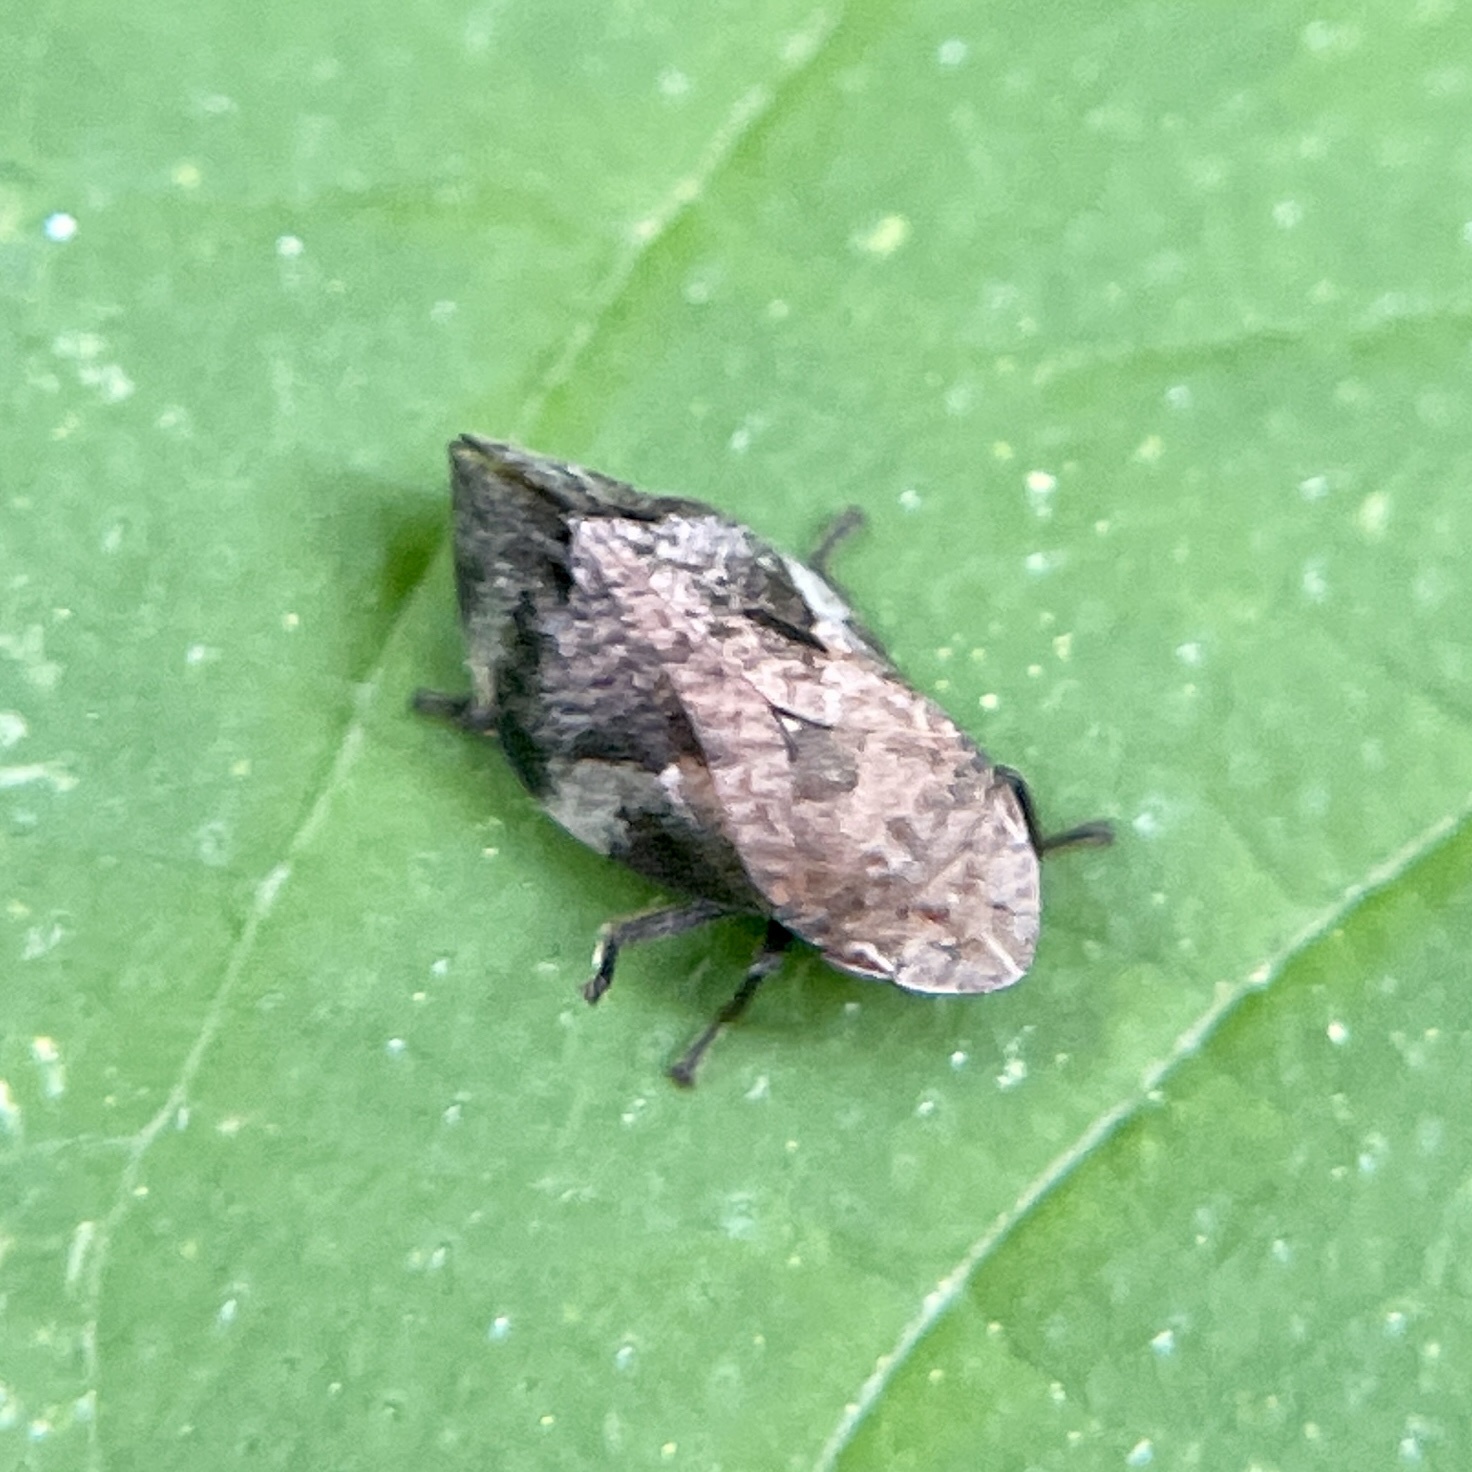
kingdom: Animalia
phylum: Arthropoda
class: Insecta
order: Hemiptera
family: Aphrophoridae
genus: Lepyronia
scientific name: Lepyronia quadrangularis
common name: Diamond-backed spittlebug
